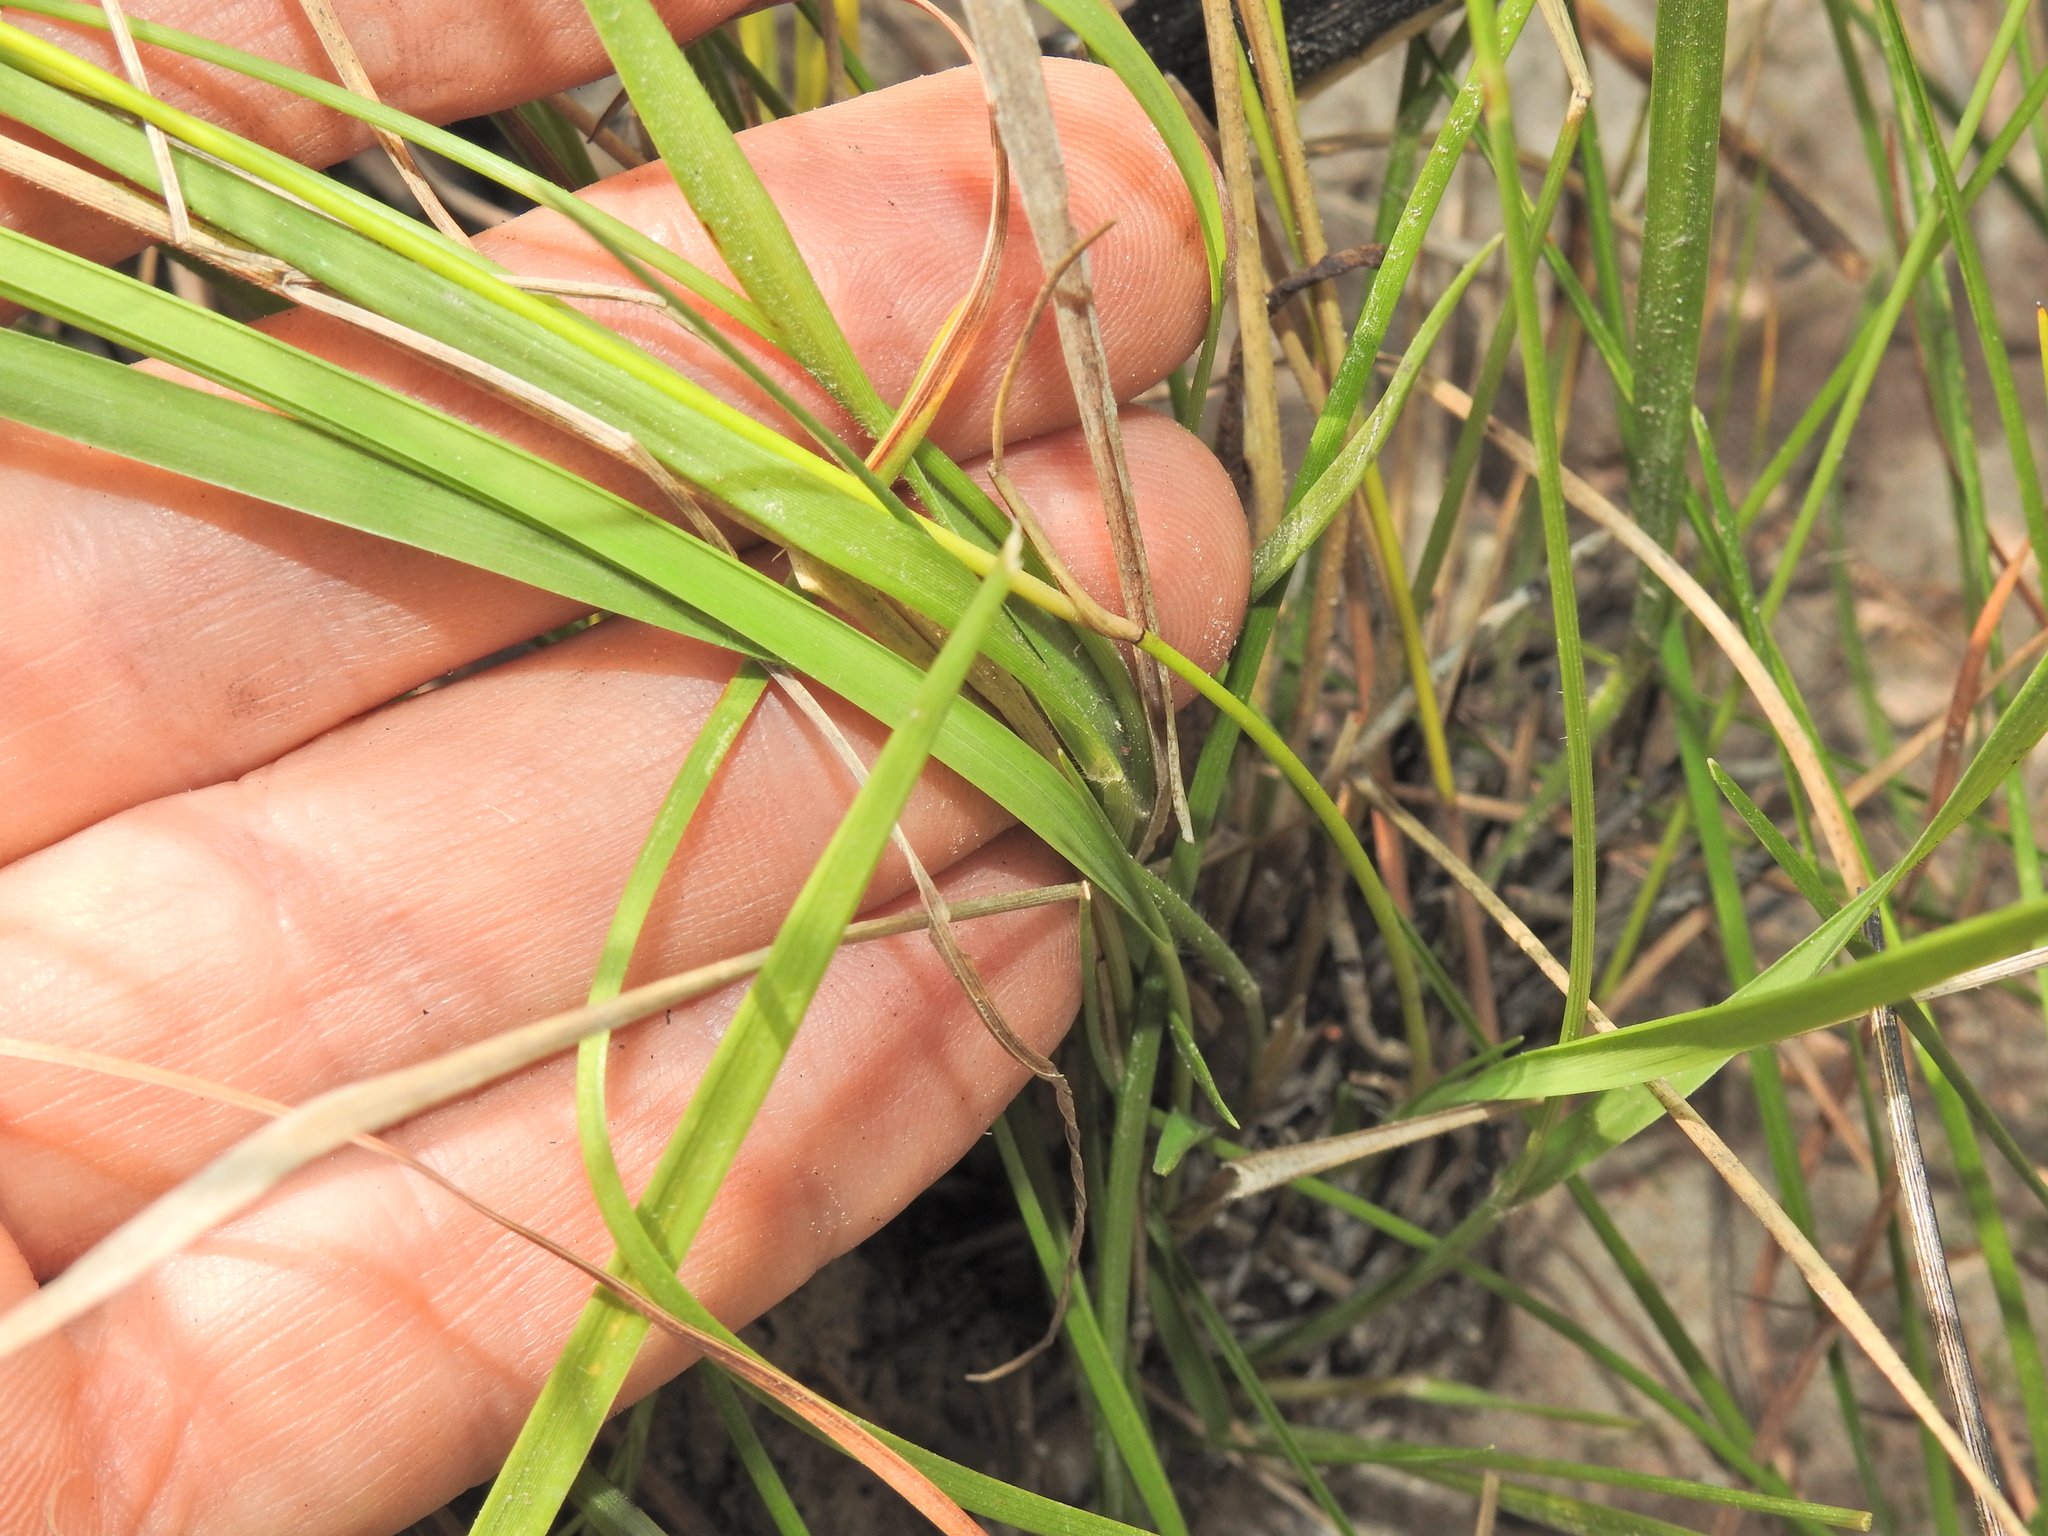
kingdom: Plantae
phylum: Tracheophyta
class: Liliopsida
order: Poales
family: Poaceae
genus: Panicum
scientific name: Panicum simile
